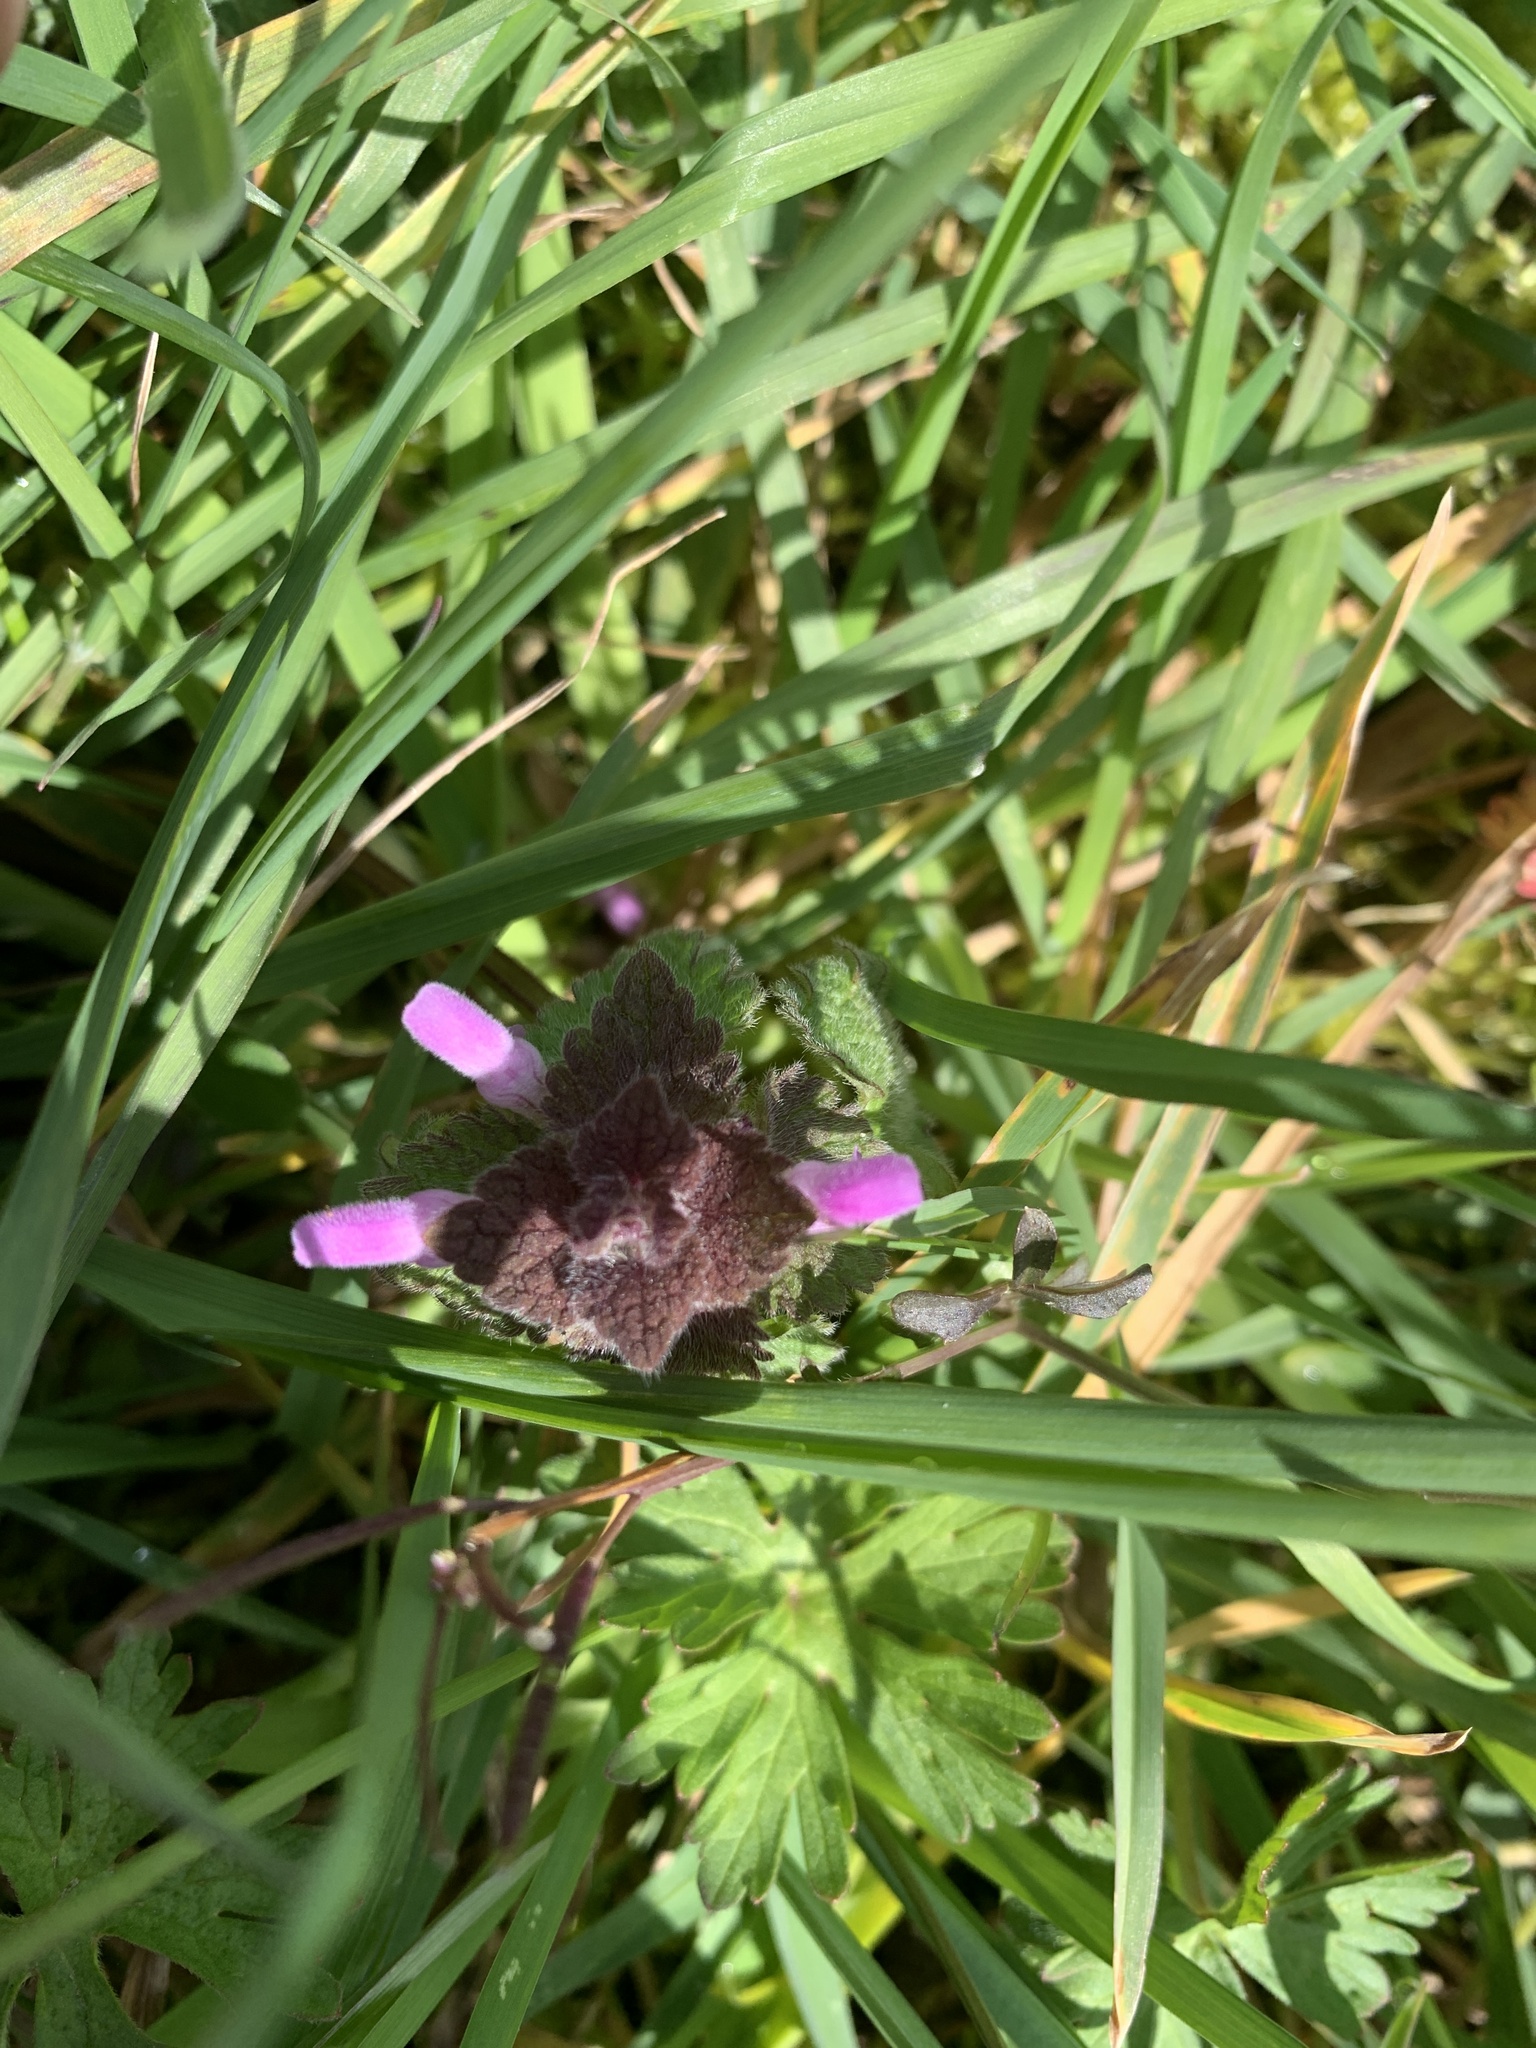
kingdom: Plantae
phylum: Tracheophyta
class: Magnoliopsida
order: Lamiales
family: Lamiaceae
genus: Lamium
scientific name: Lamium purpureum
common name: Red dead-nettle
